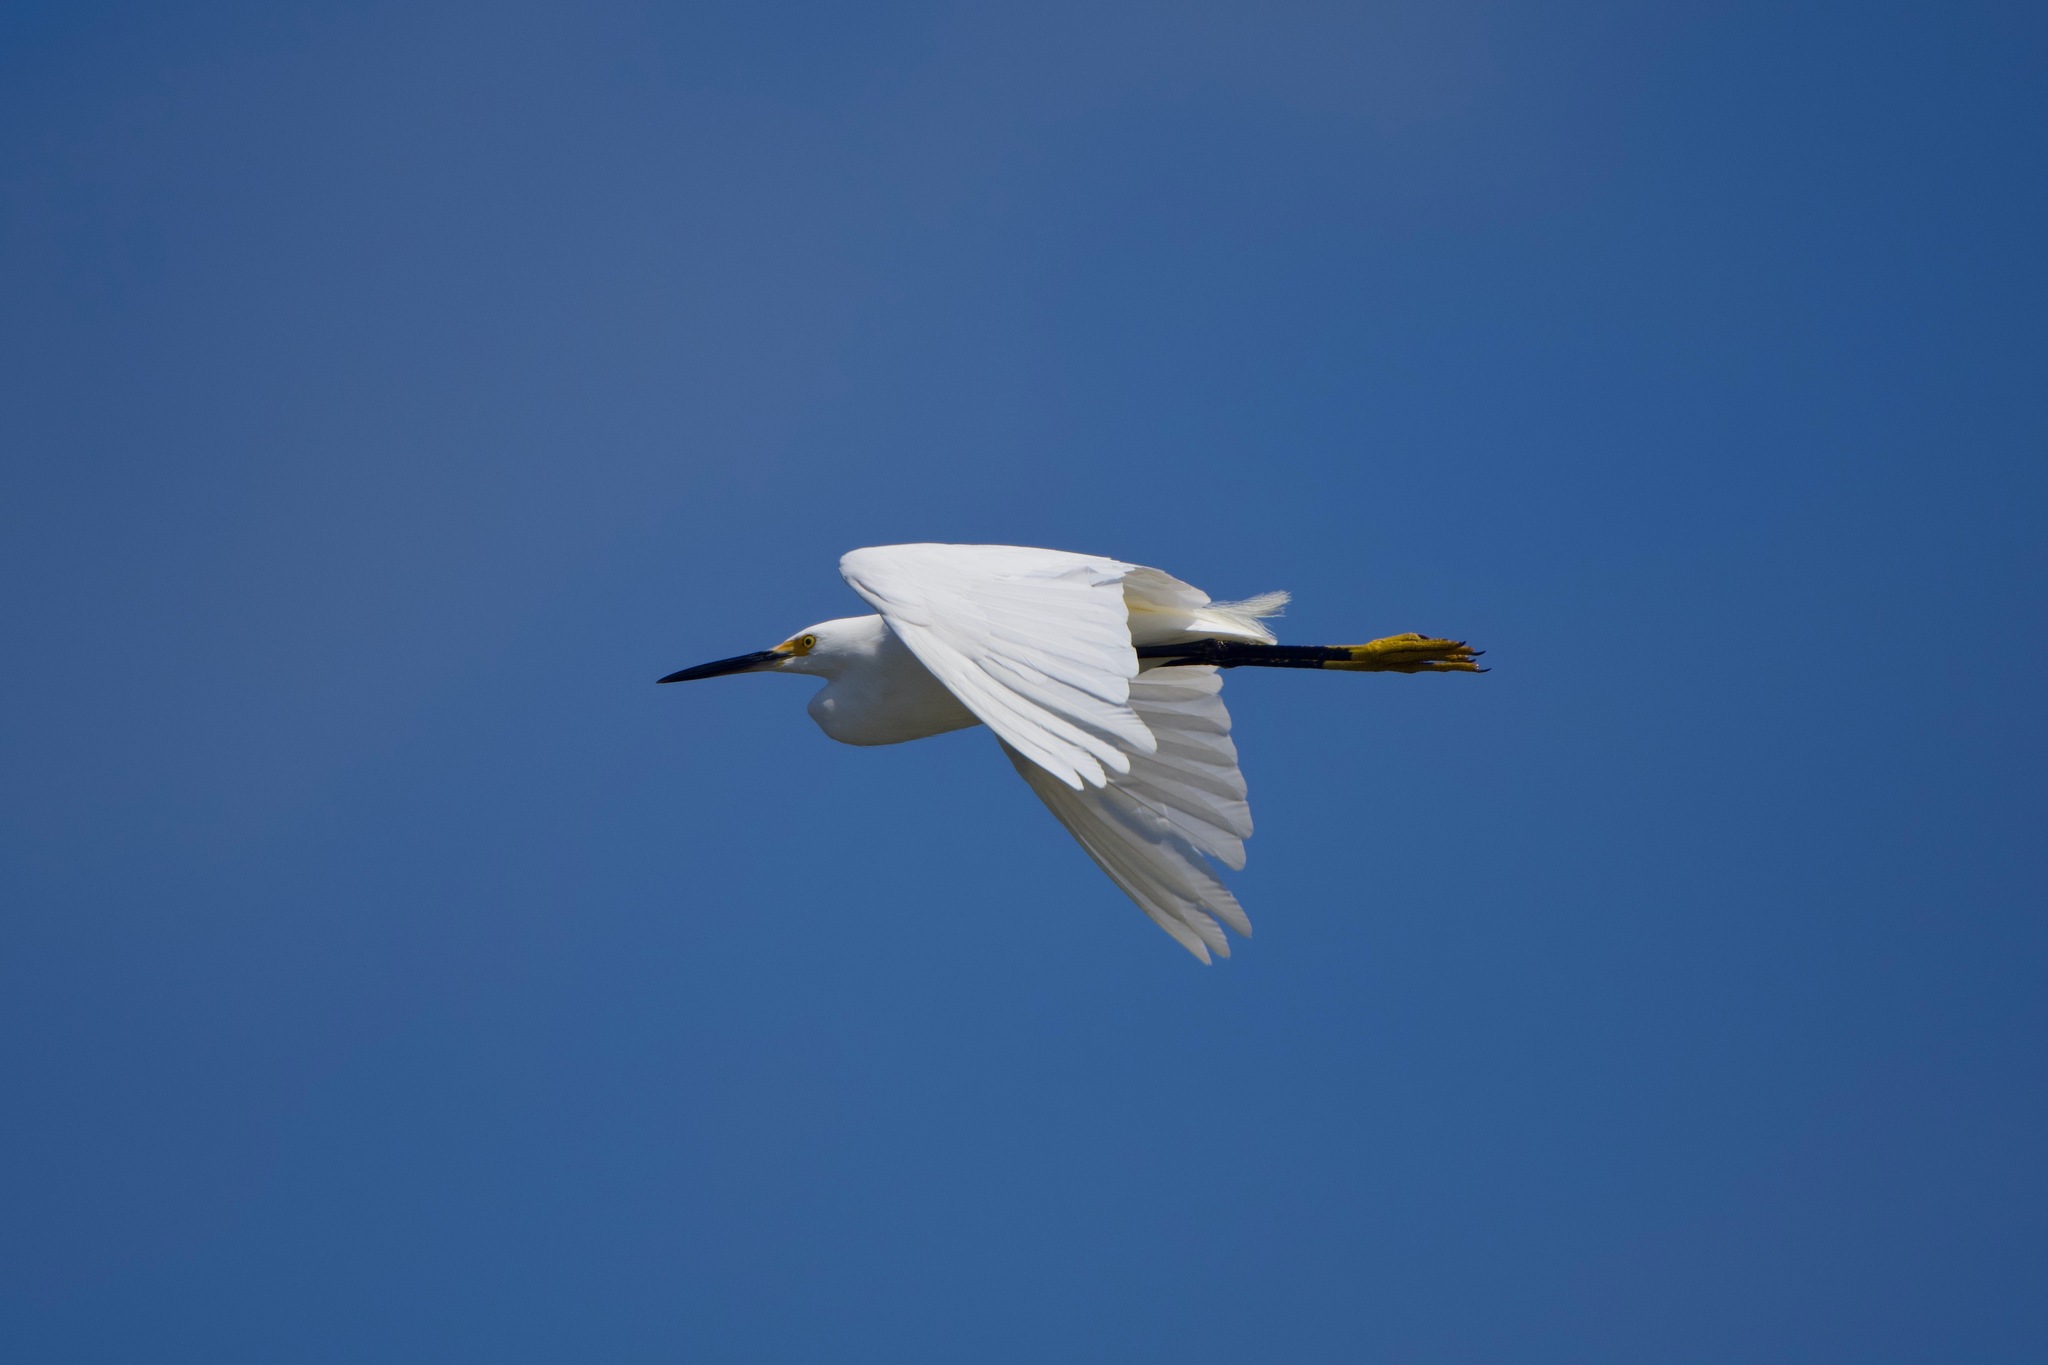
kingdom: Animalia
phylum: Chordata
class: Aves
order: Pelecaniformes
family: Ardeidae
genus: Egretta
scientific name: Egretta thula
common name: Snowy egret
